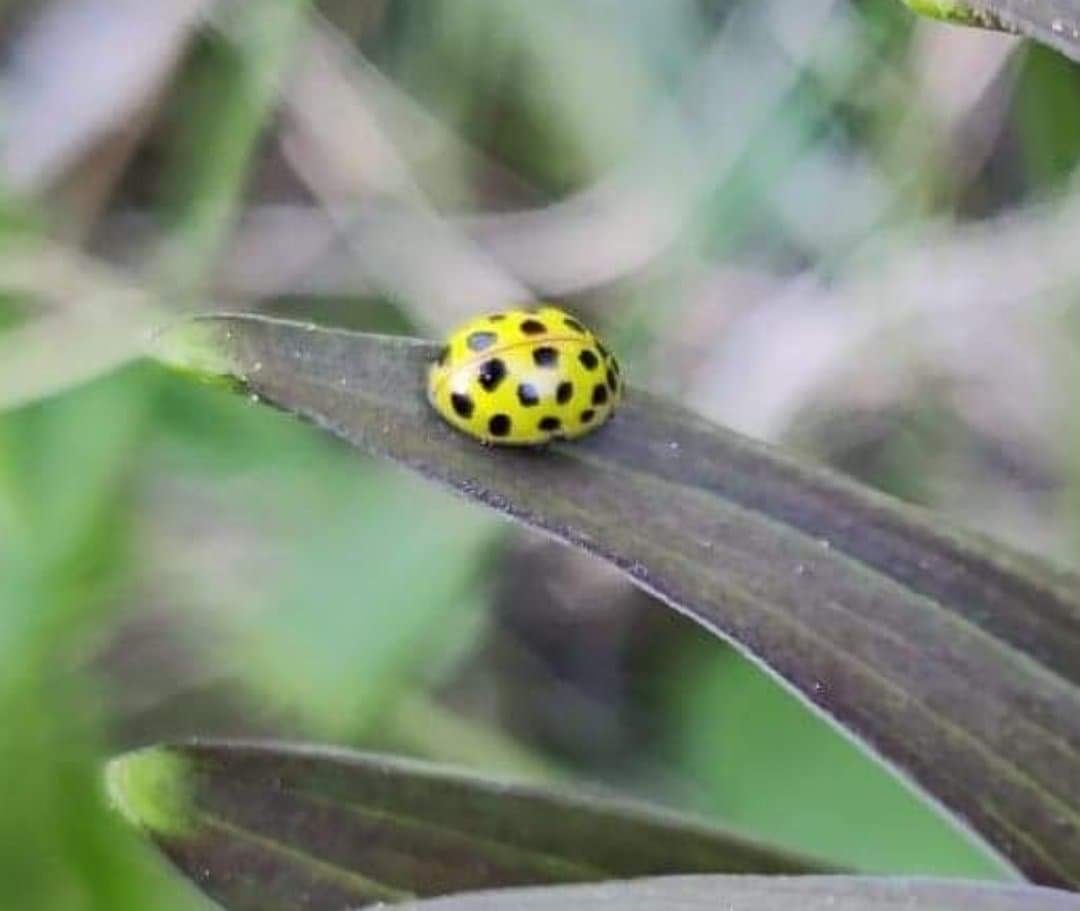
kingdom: Animalia
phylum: Arthropoda
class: Insecta
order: Coleoptera
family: Coccinellidae
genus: Psyllobora
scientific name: Psyllobora vigintiduopunctata
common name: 22-spot ladybird
